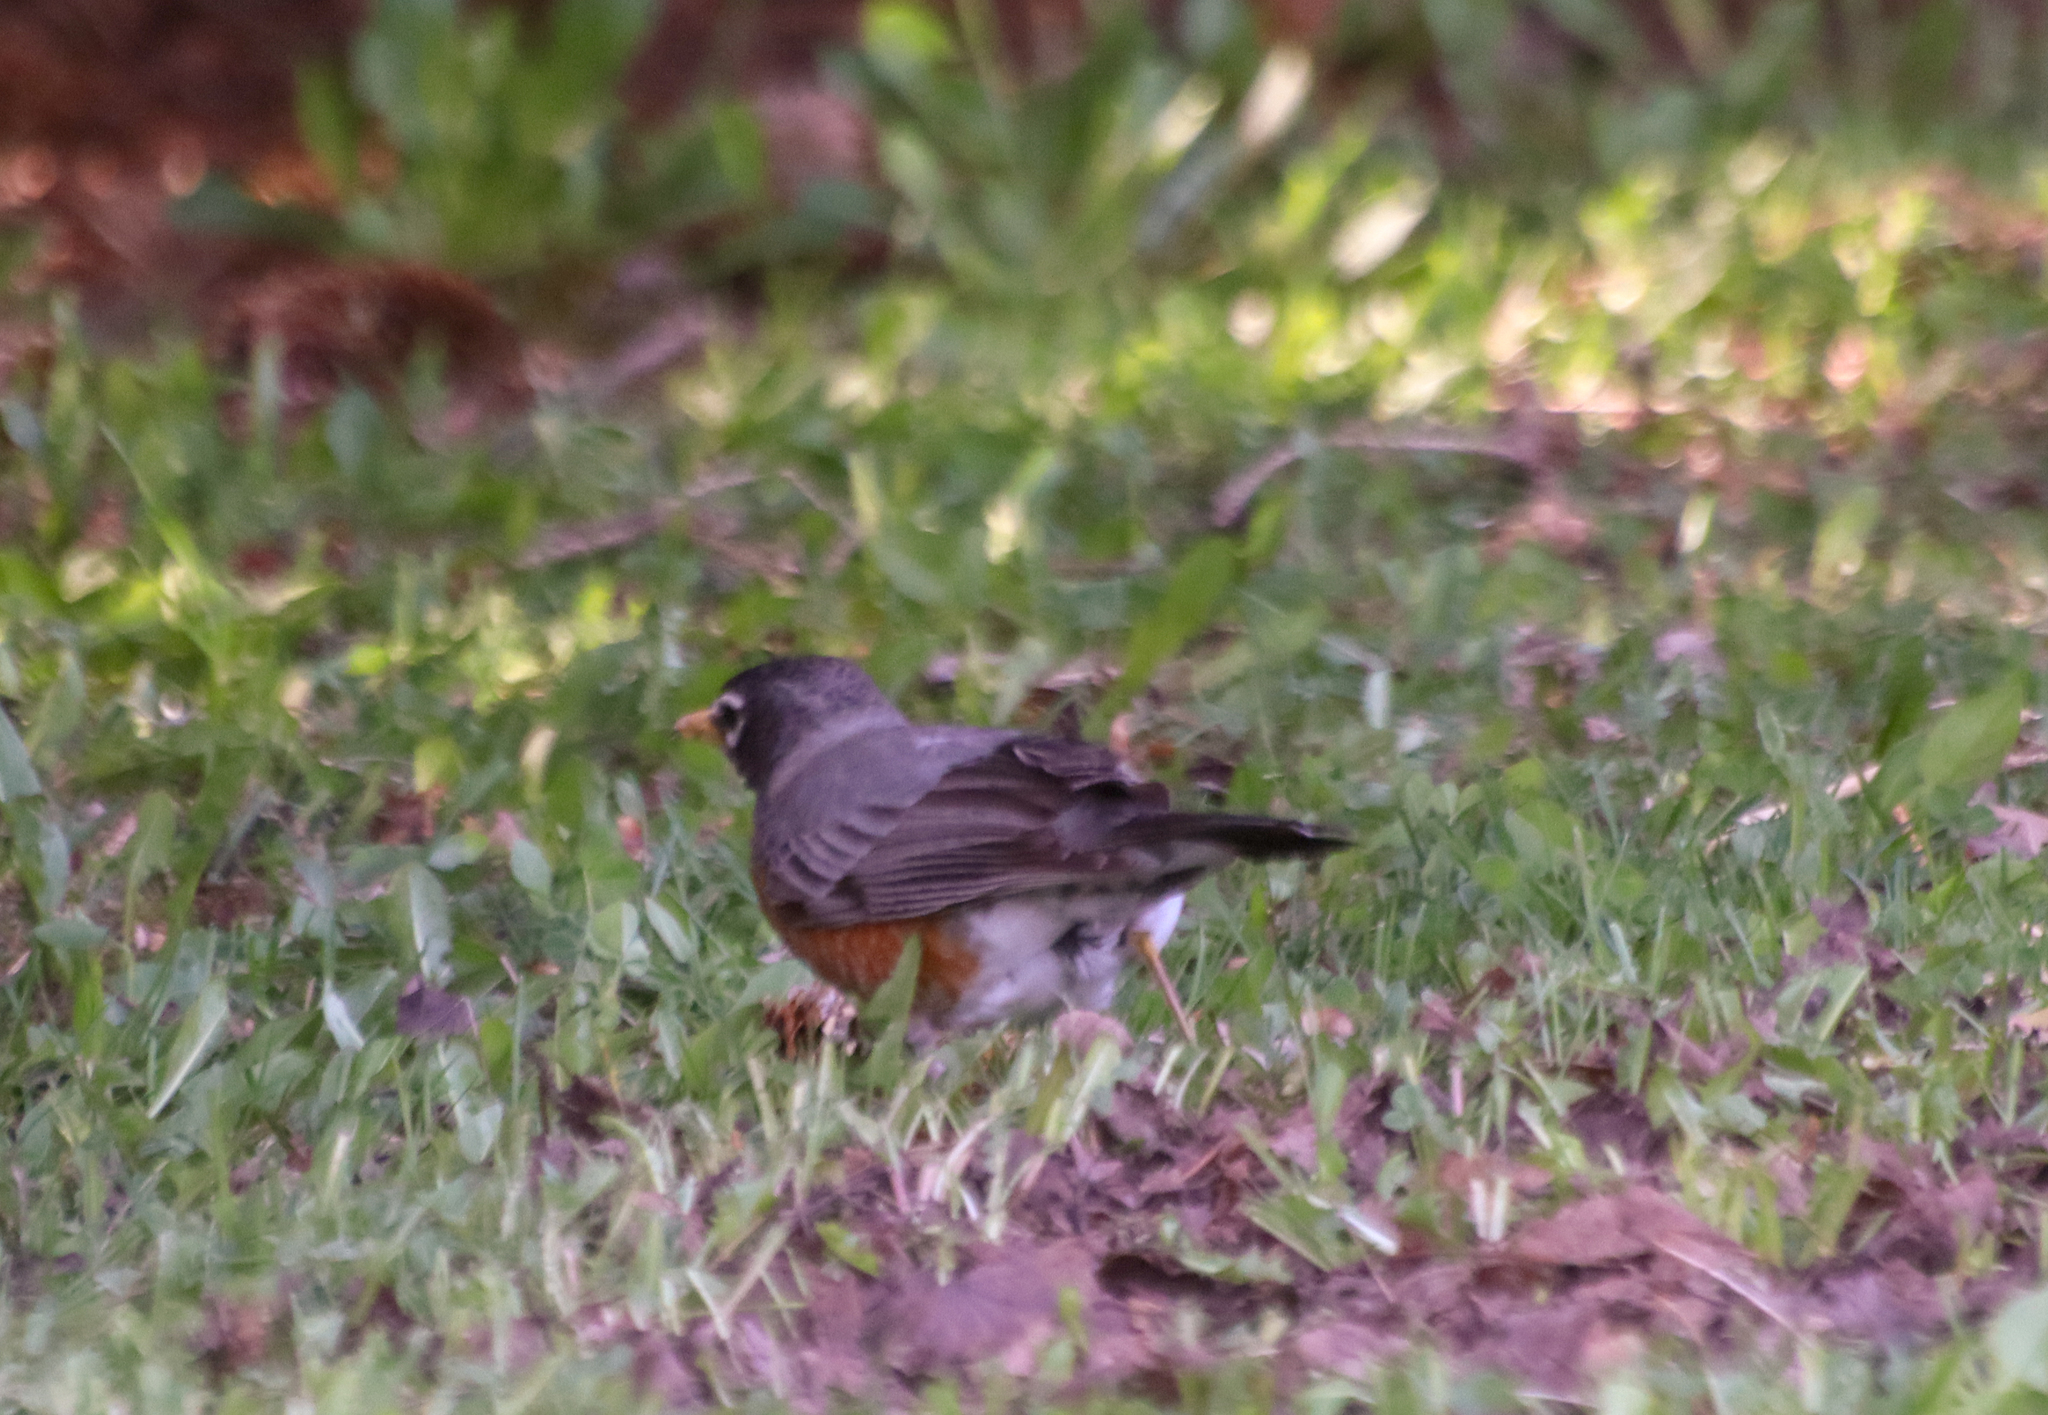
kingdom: Animalia
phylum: Chordata
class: Aves
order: Passeriformes
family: Turdidae
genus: Turdus
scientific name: Turdus migratorius
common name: American robin
